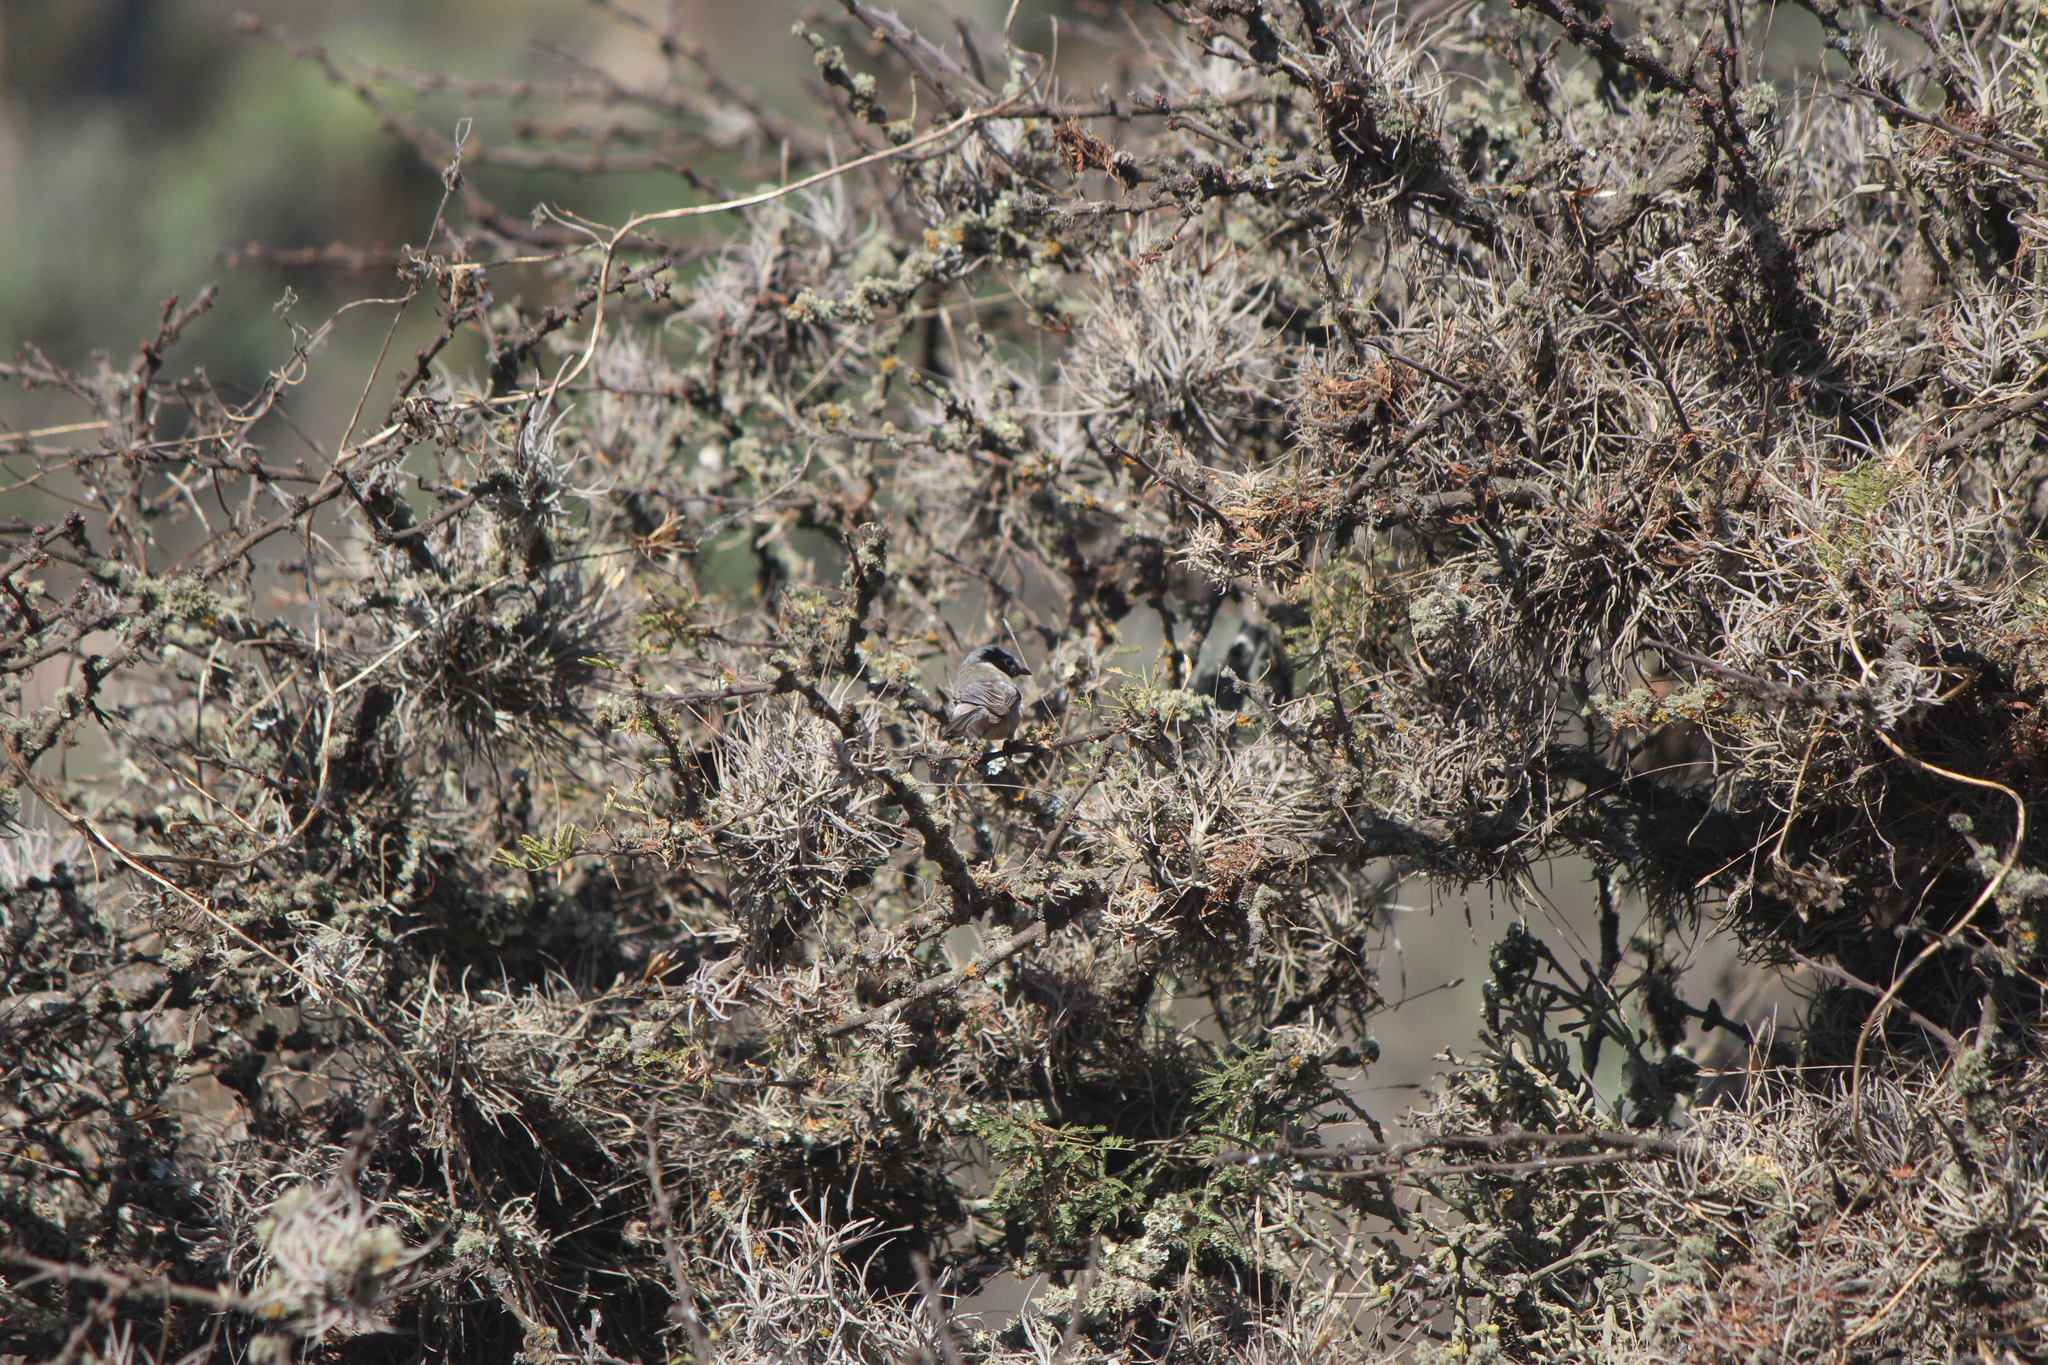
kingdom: Animalia
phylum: Chordata
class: Aves
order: Passeriformes
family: Aegithalidae
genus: Psaltriparus
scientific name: Psaltriparus minimus
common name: American bushtit
